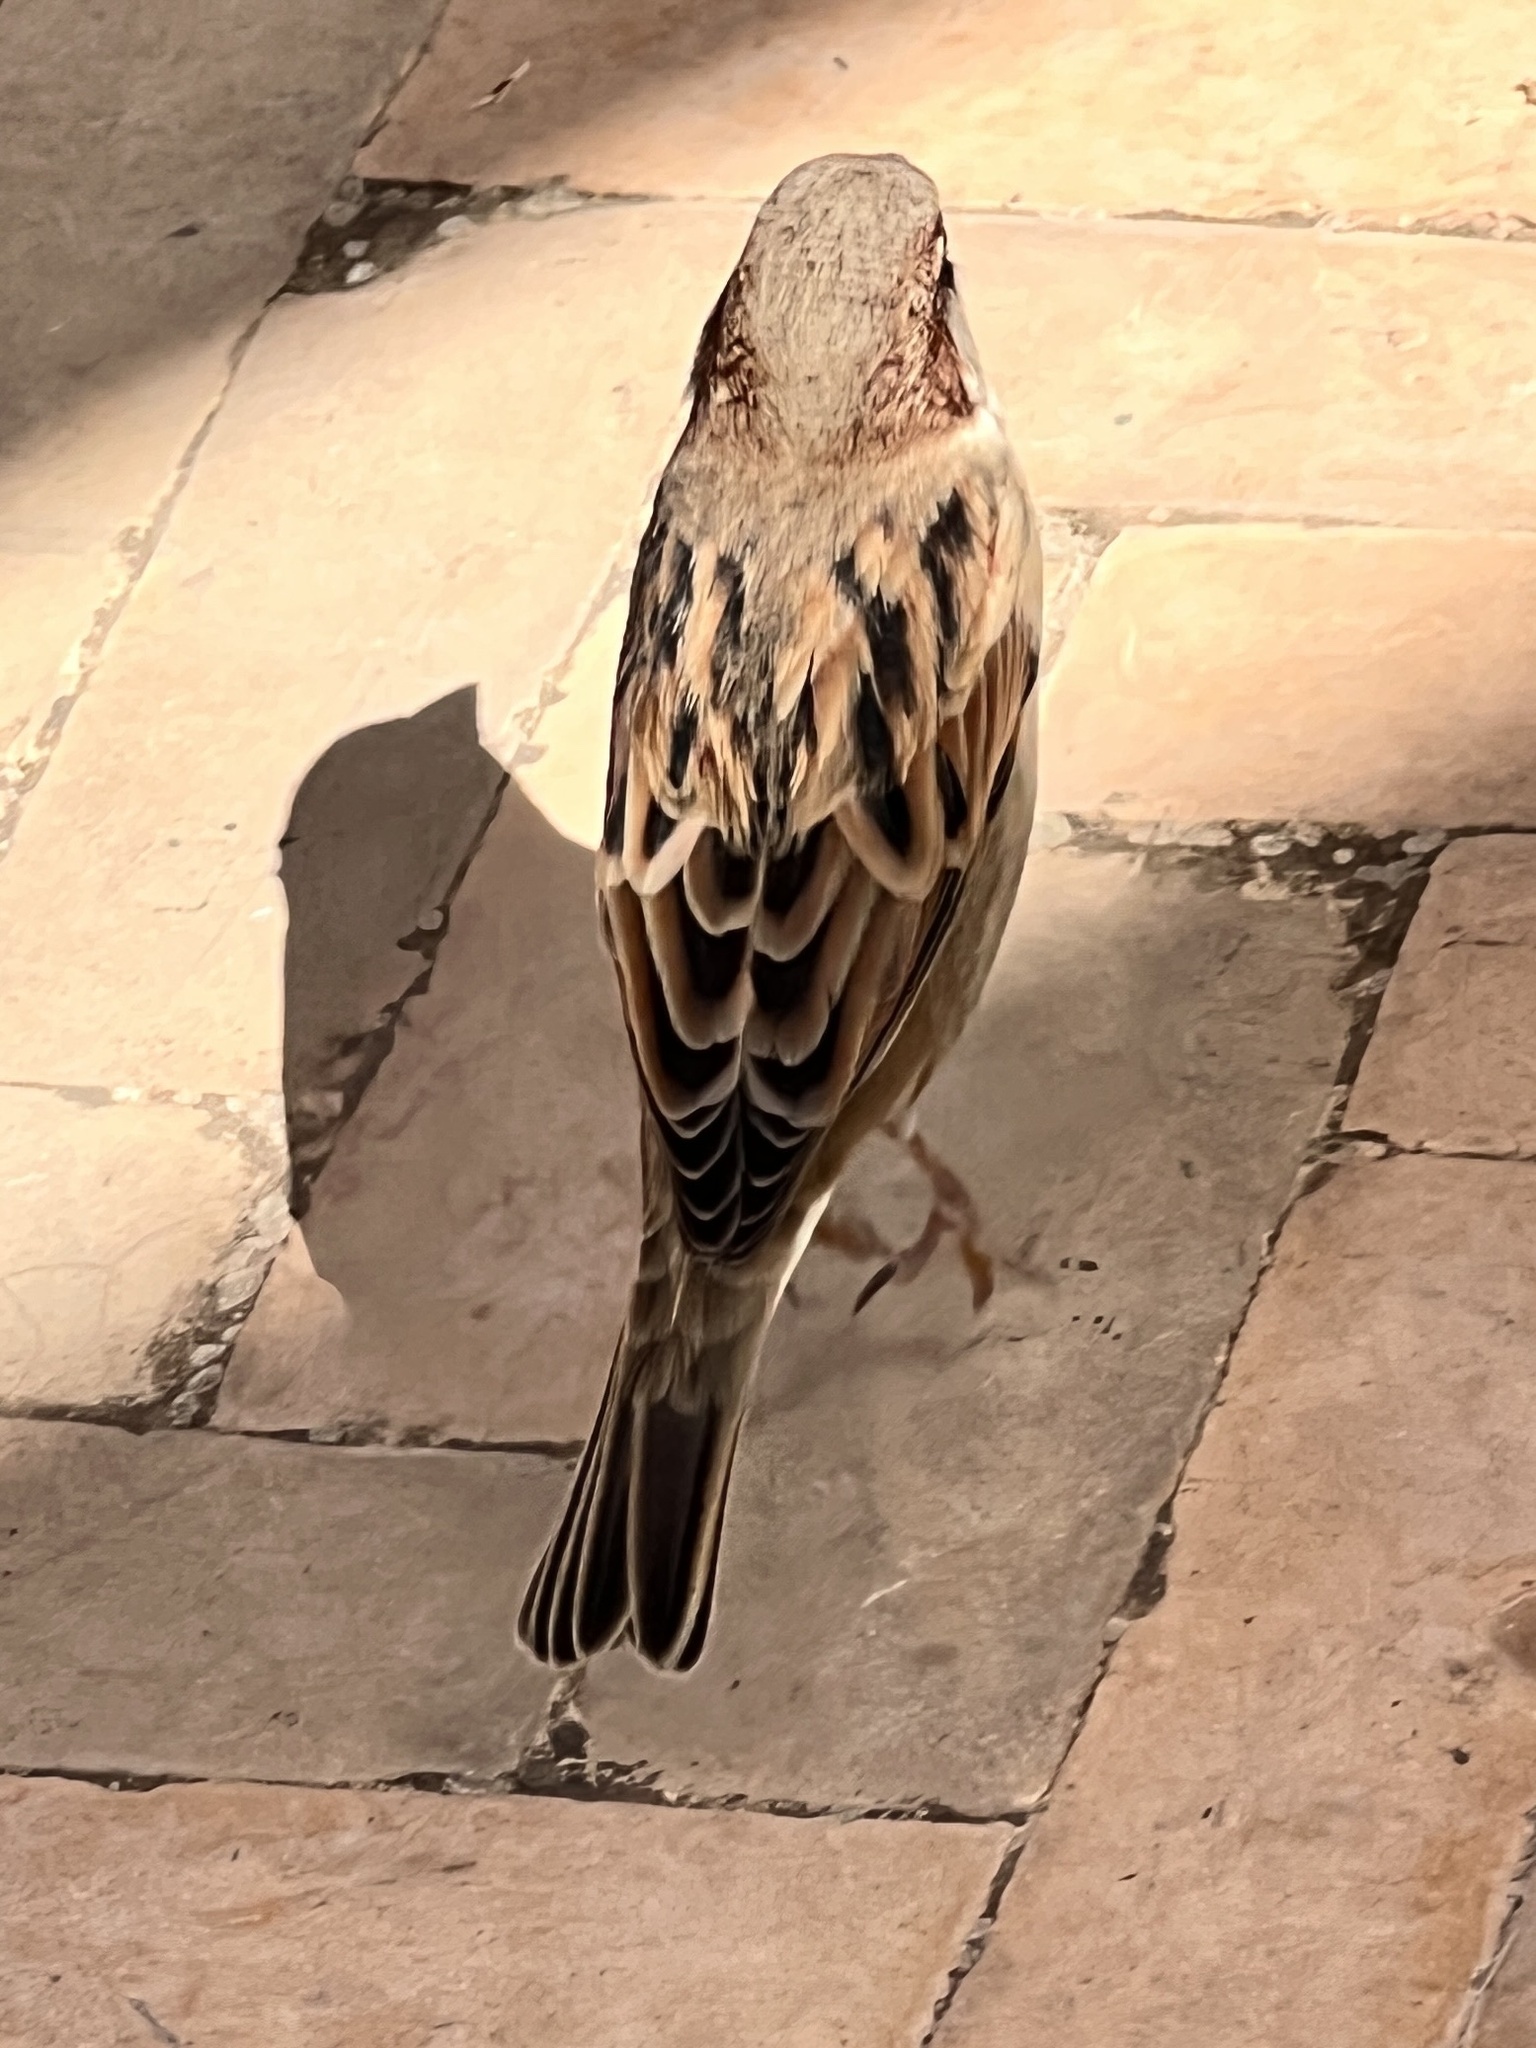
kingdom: Animalia
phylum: Chordata
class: Aves
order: Passeriformes
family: Passeridae
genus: Passer
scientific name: Passer domesticus
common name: House sparrow
